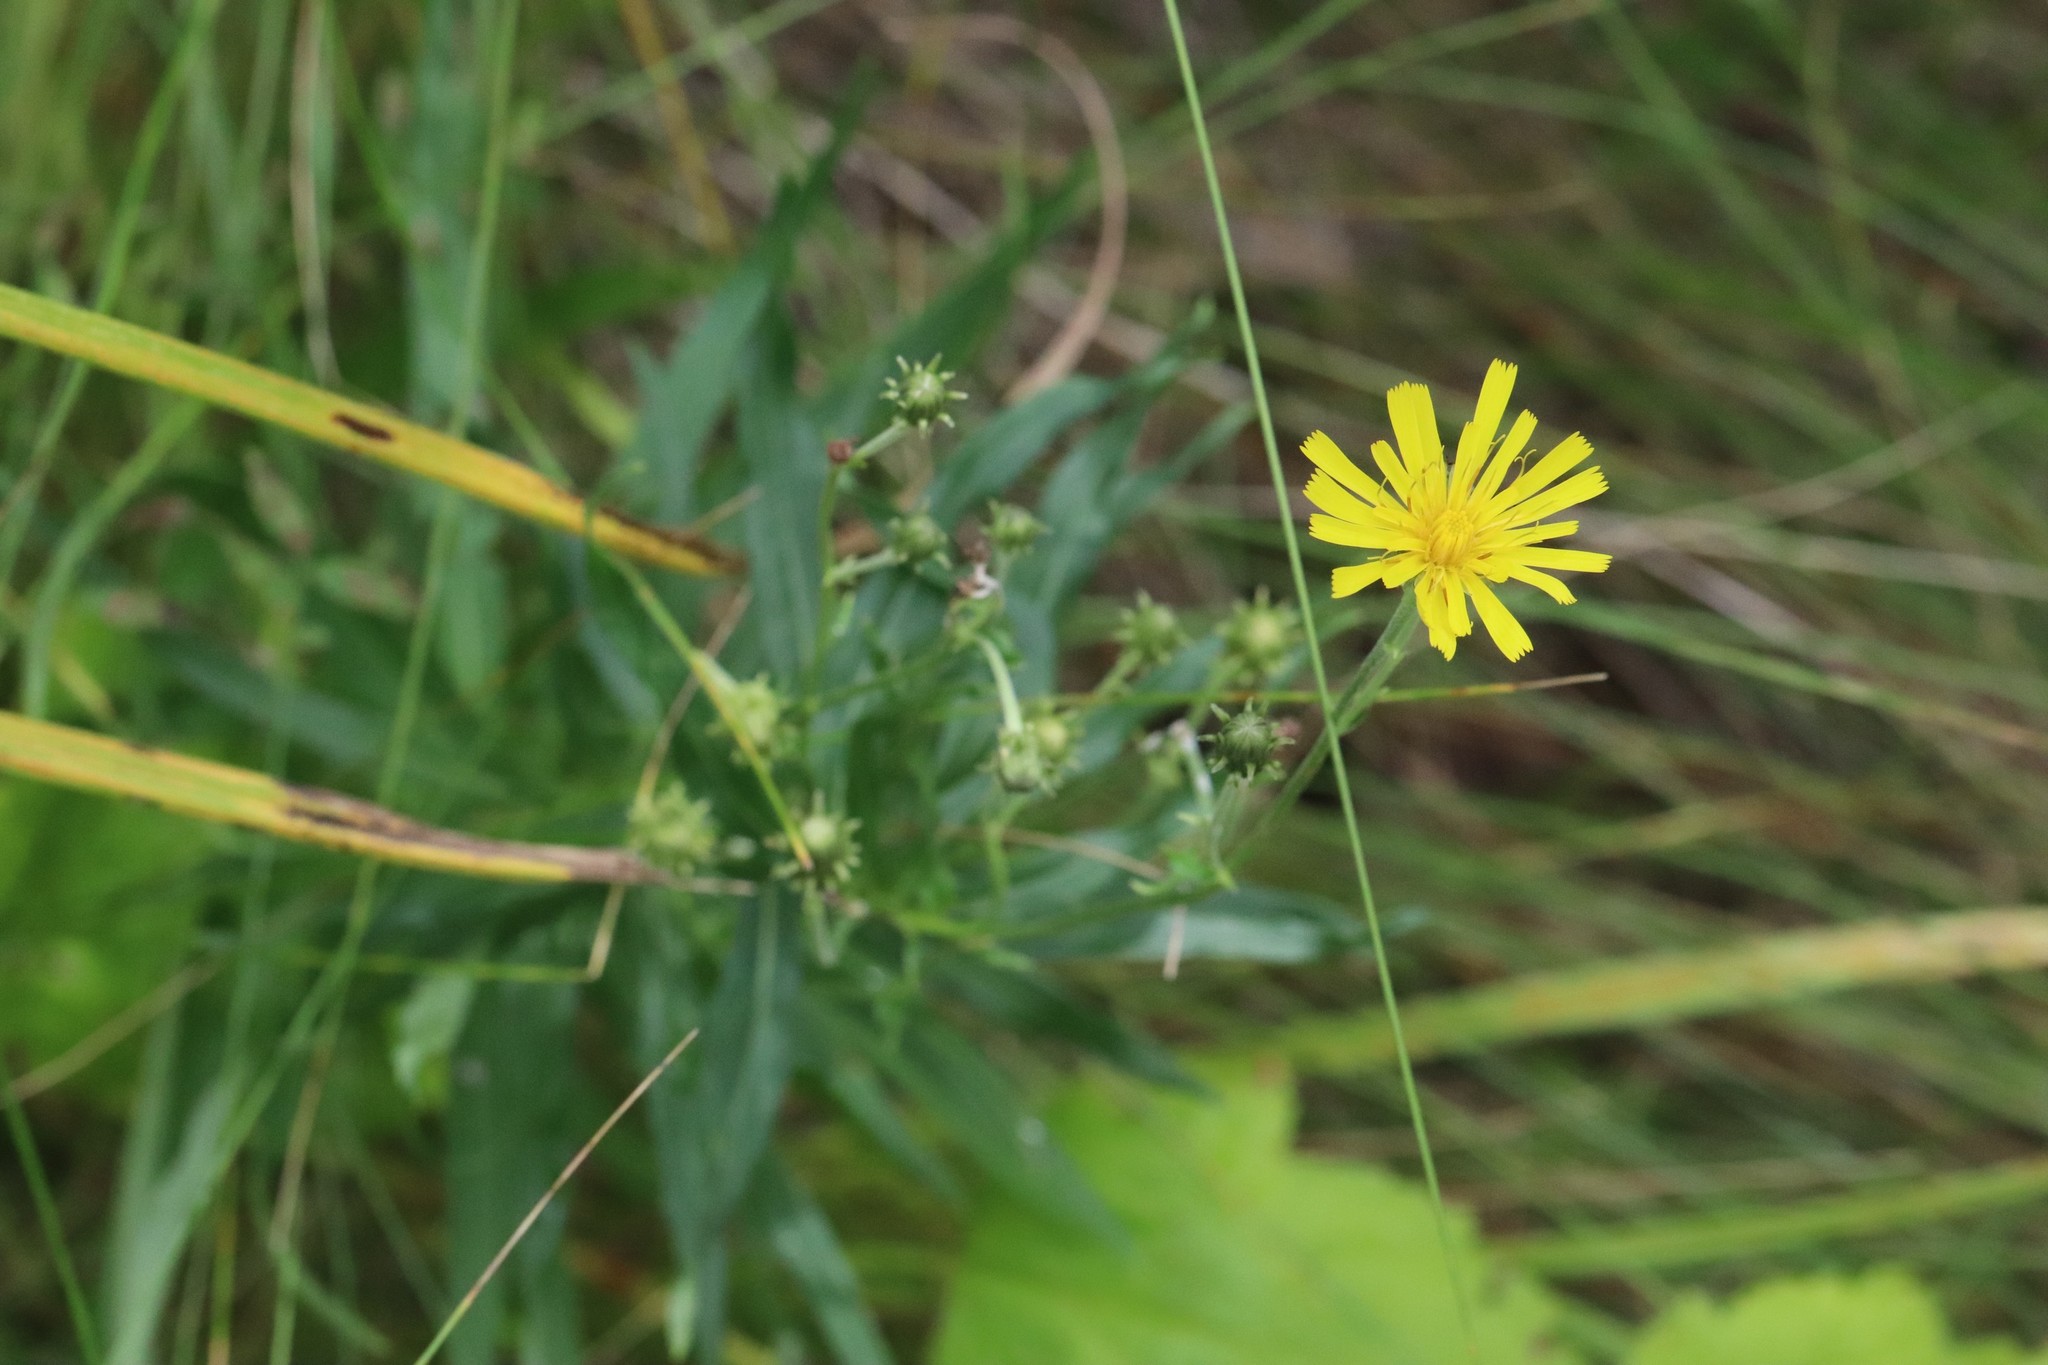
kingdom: Plantae
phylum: Tracheophyta
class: Magnoliopsida
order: Asterales
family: Asteraceae
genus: Hieracium
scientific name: Hieracium umbellatum
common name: Northern hawkweed
